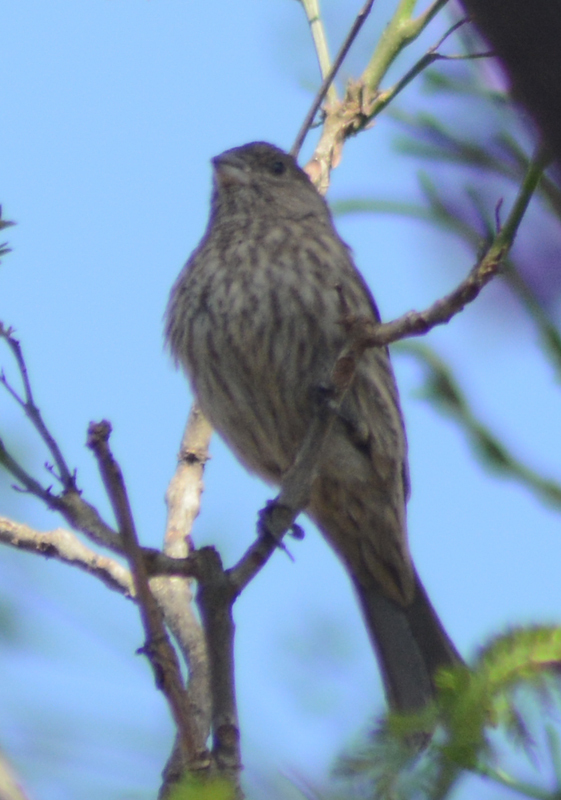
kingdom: Animalia
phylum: Chordata
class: Aves
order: Passeriformes
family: Fringillidae
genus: Haemorhous
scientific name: Haemorhous mexicanus
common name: House finch
